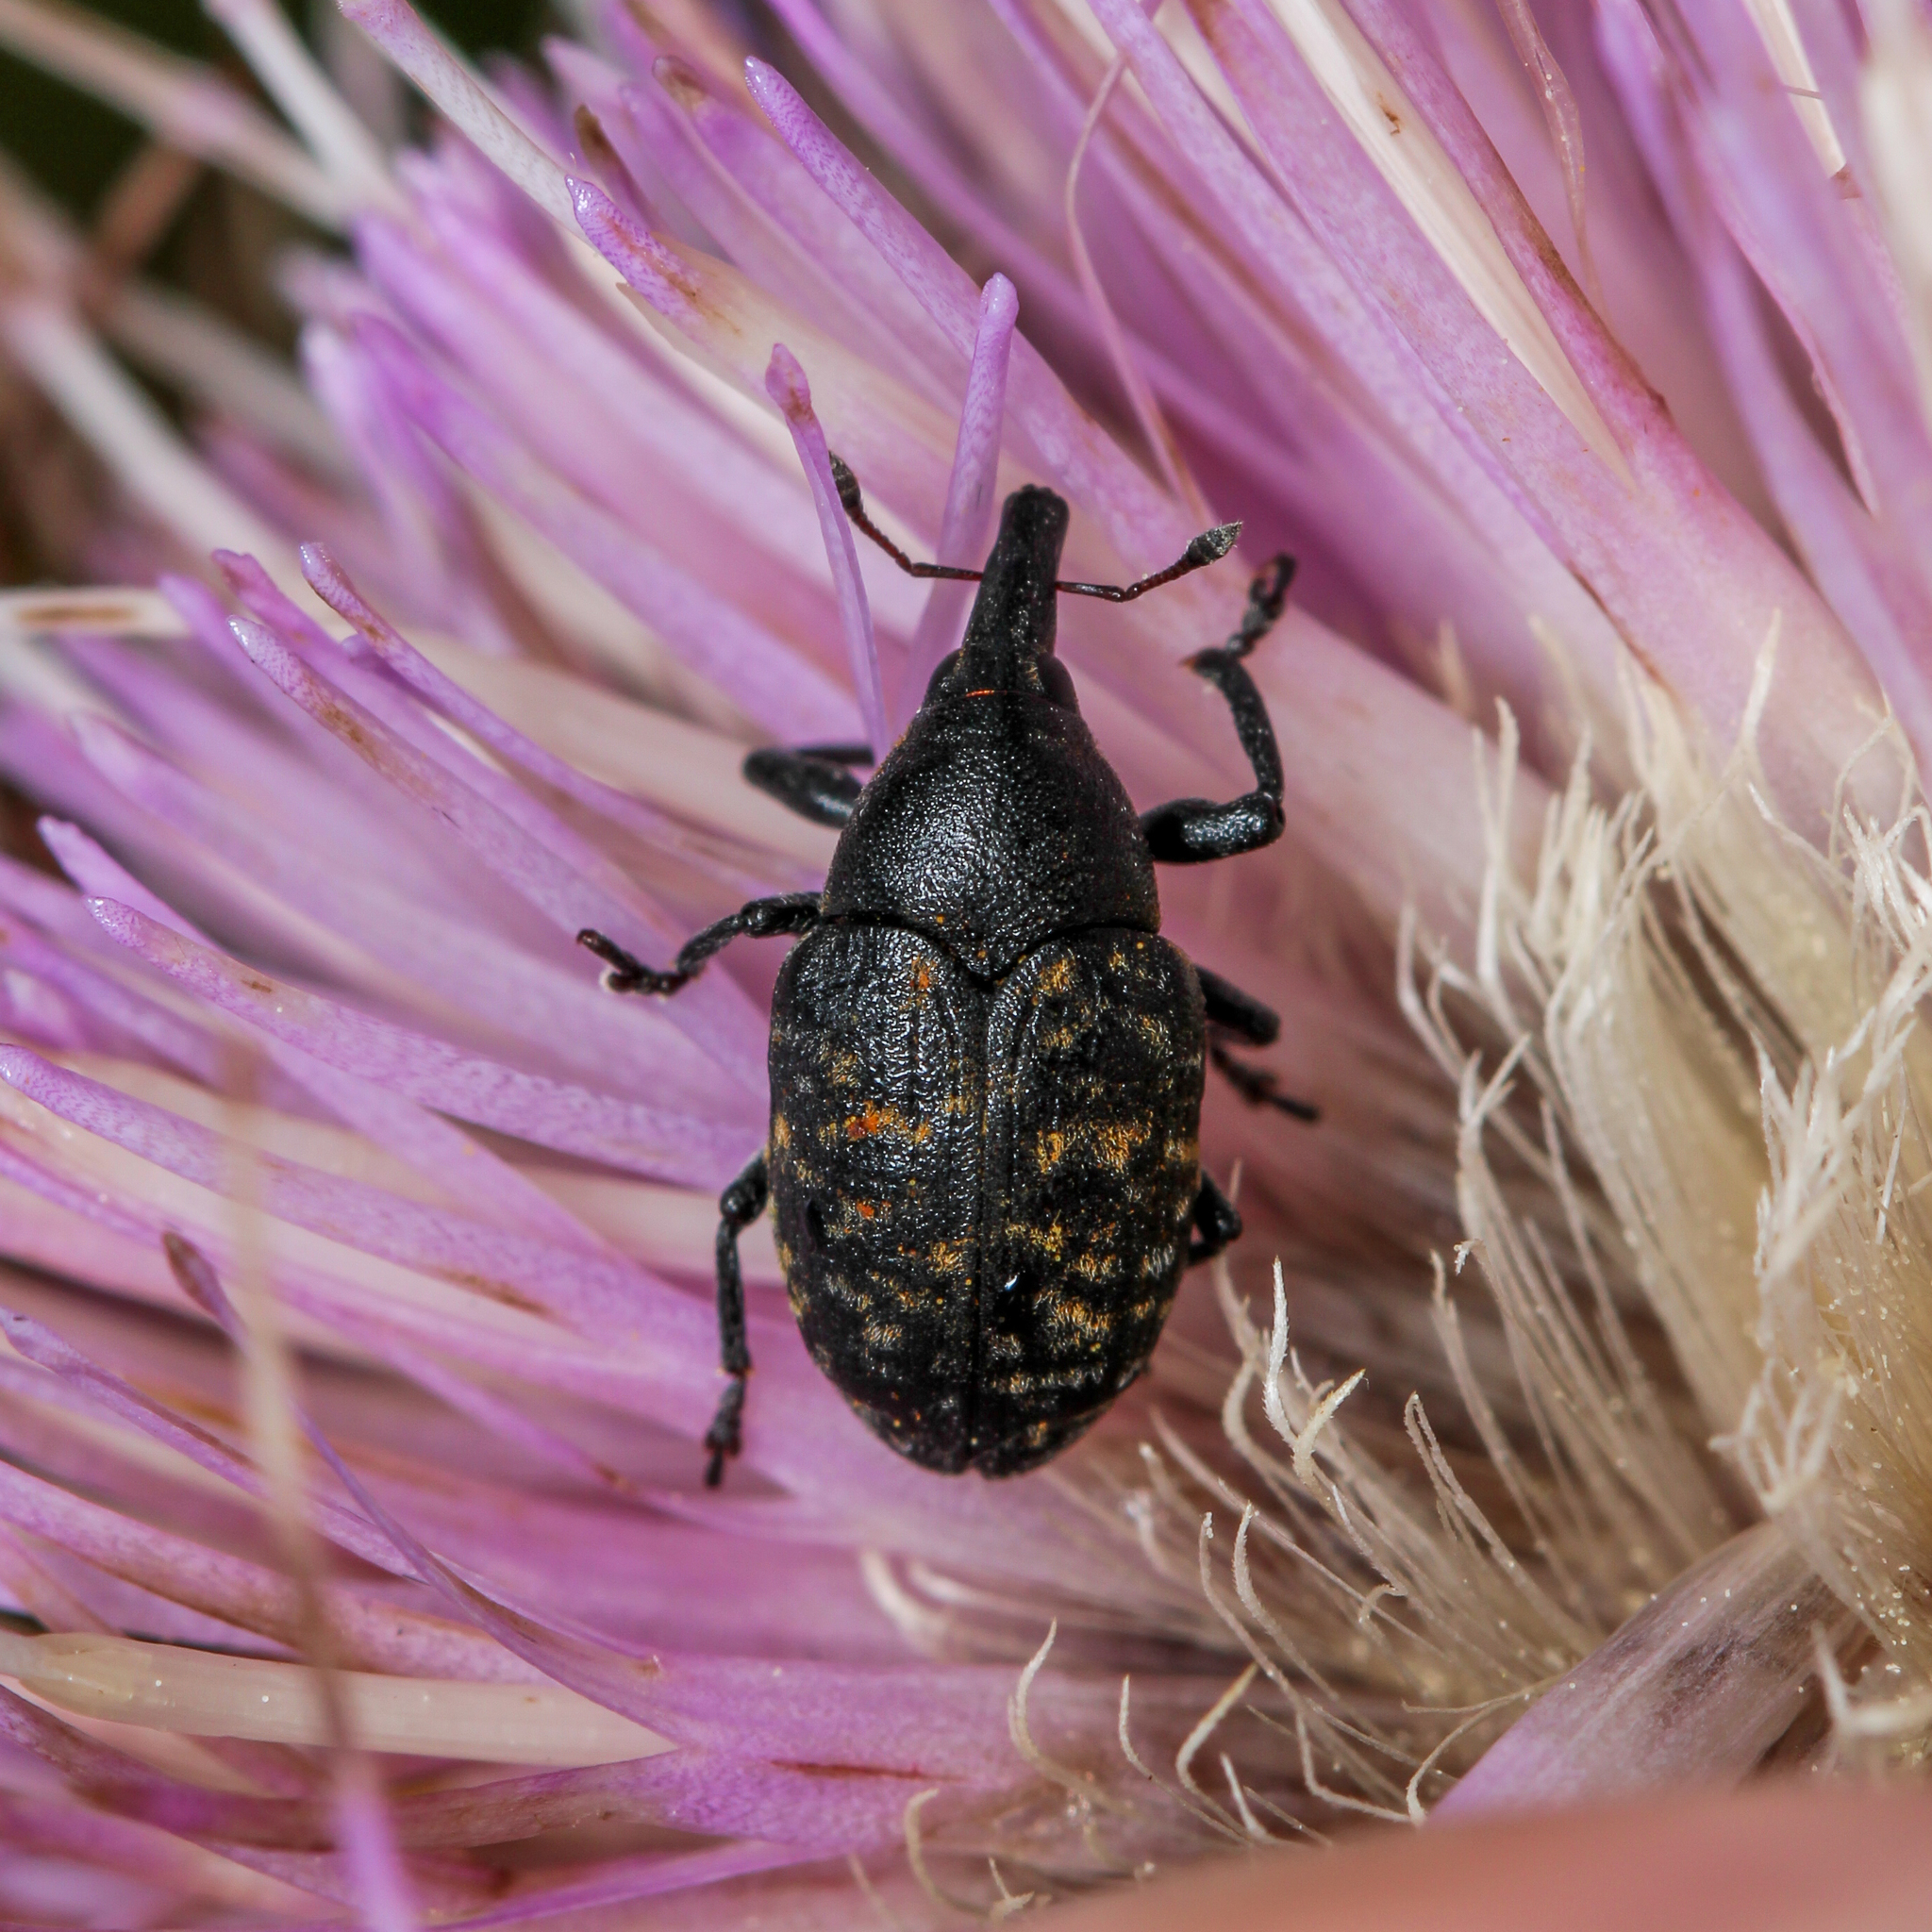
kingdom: Animalia
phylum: Arthropoda
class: Insecta
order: Coleoptera
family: Curculionidae
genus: Larinus
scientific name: Larinus turbinatus
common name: Weevil
